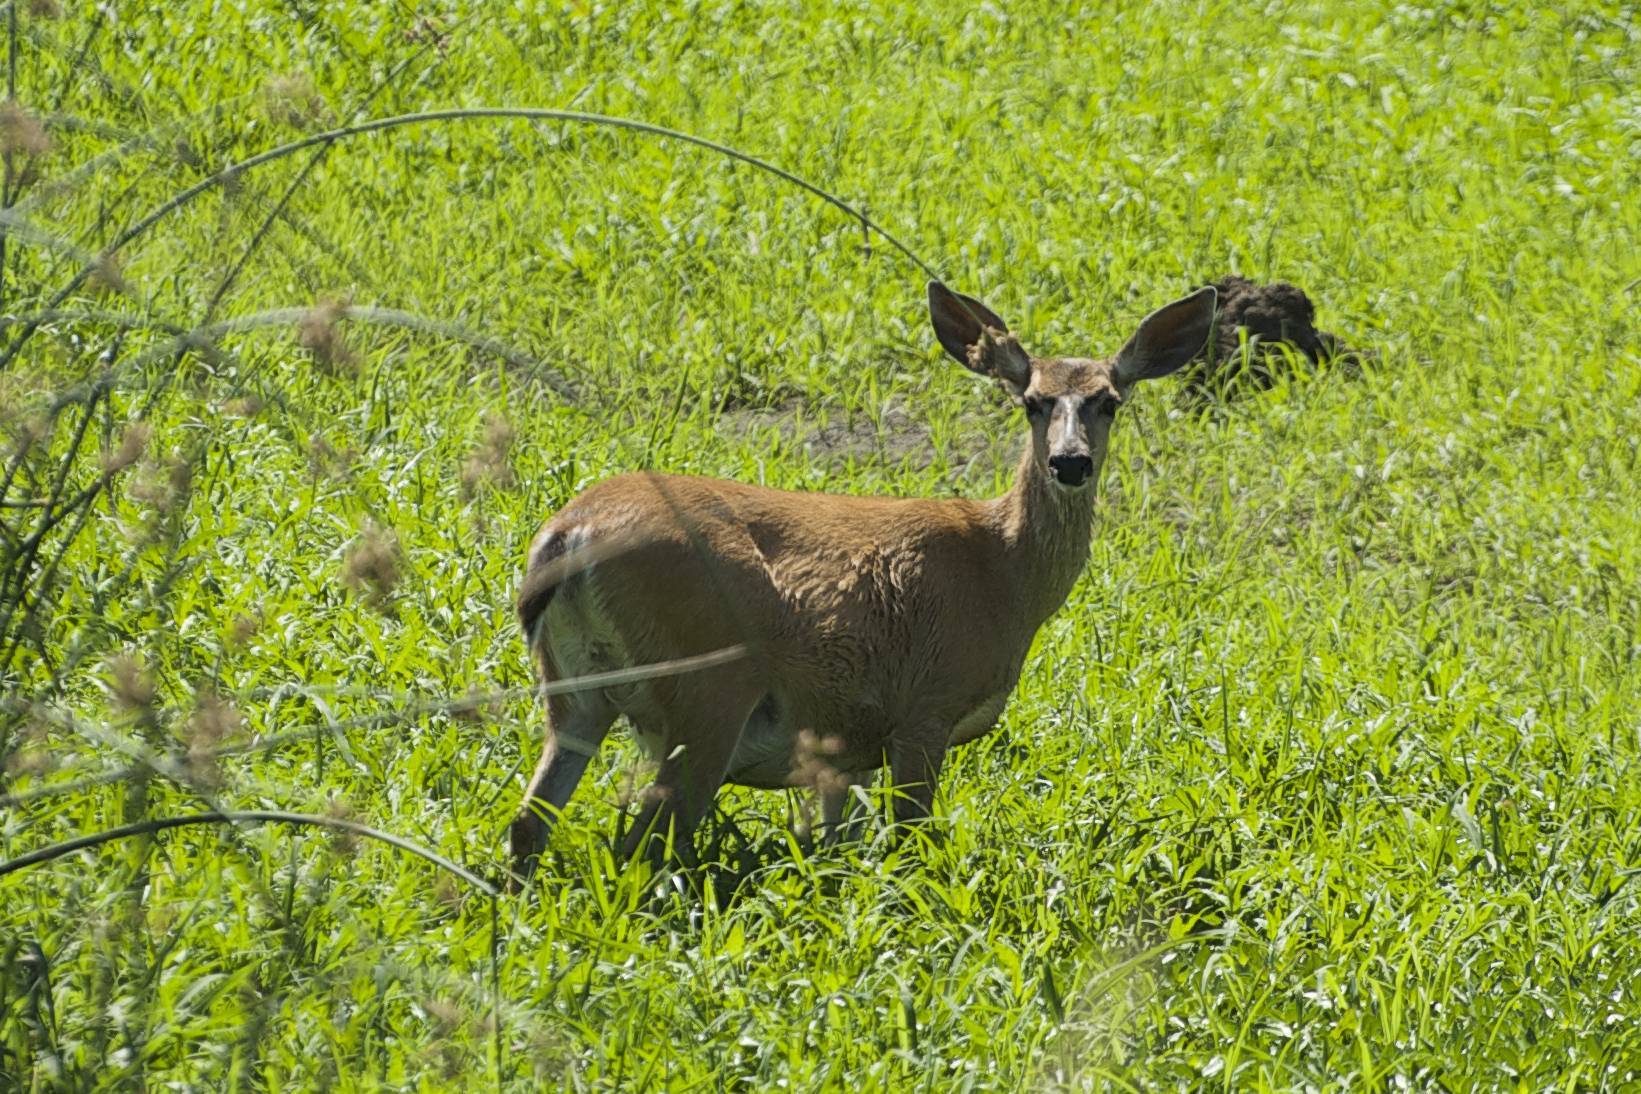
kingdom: Animalia
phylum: Chordata
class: Mammalia
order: Artiodactyla
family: Cervidae
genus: Odocoileus
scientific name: Odocoileus hemionus
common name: Mule deer
